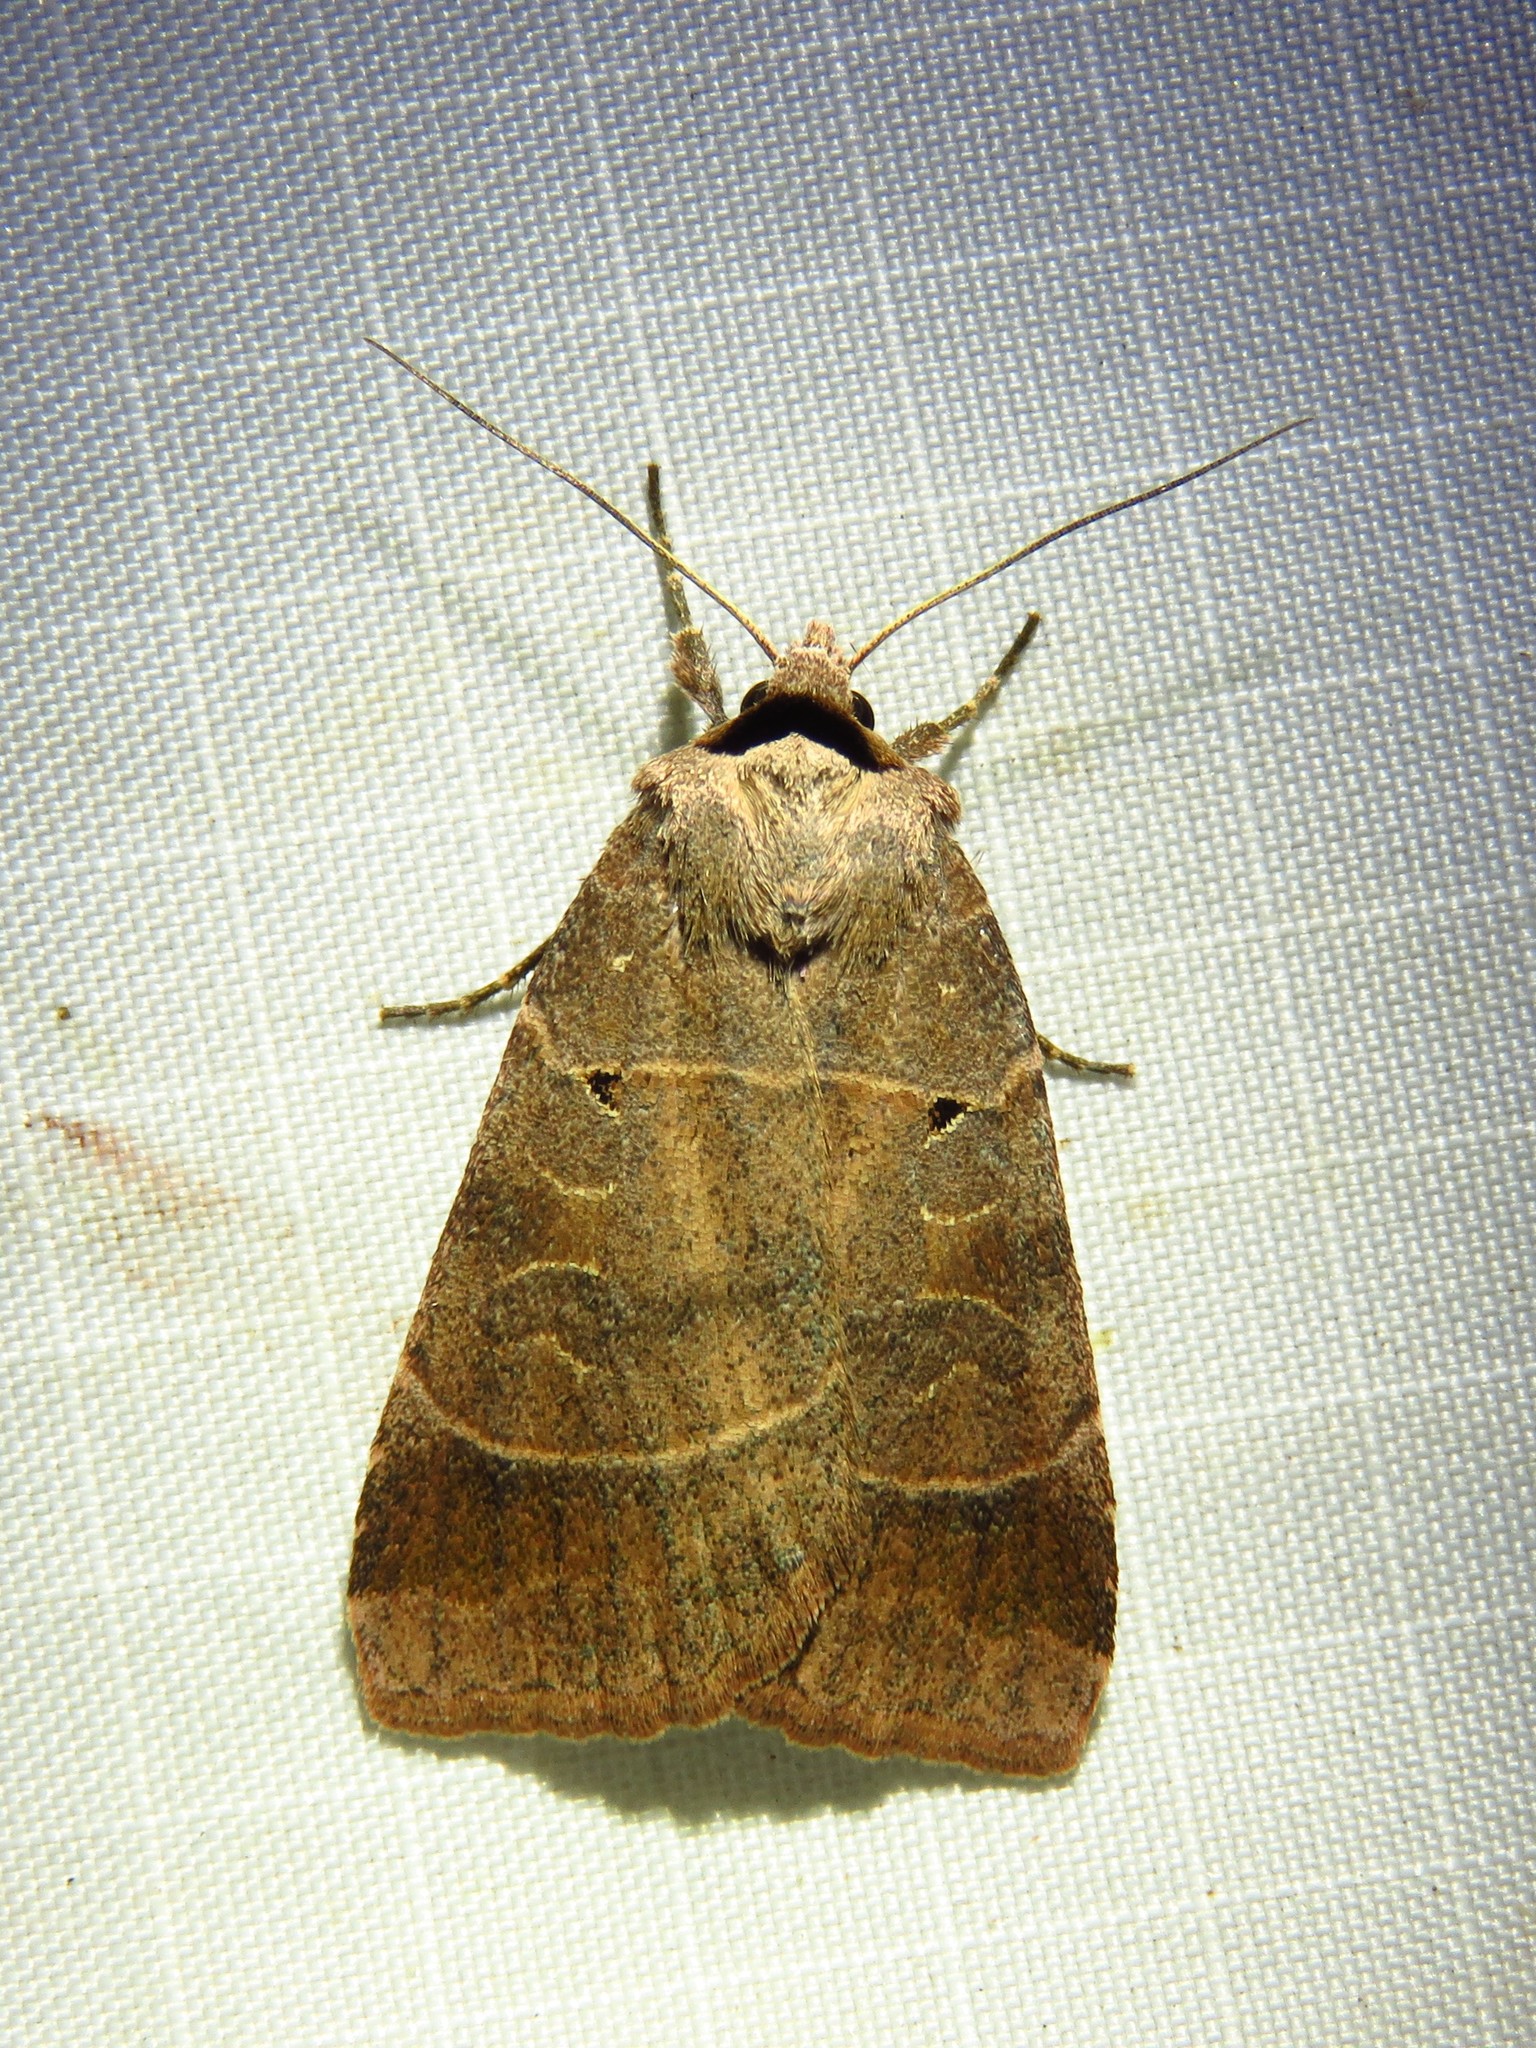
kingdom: Animalia
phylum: Arthropoda
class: Insecta
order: Lepidoptera
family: Noctuidae
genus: Agnorisma
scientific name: Agnorisma badinodis
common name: Pale-banded dart
